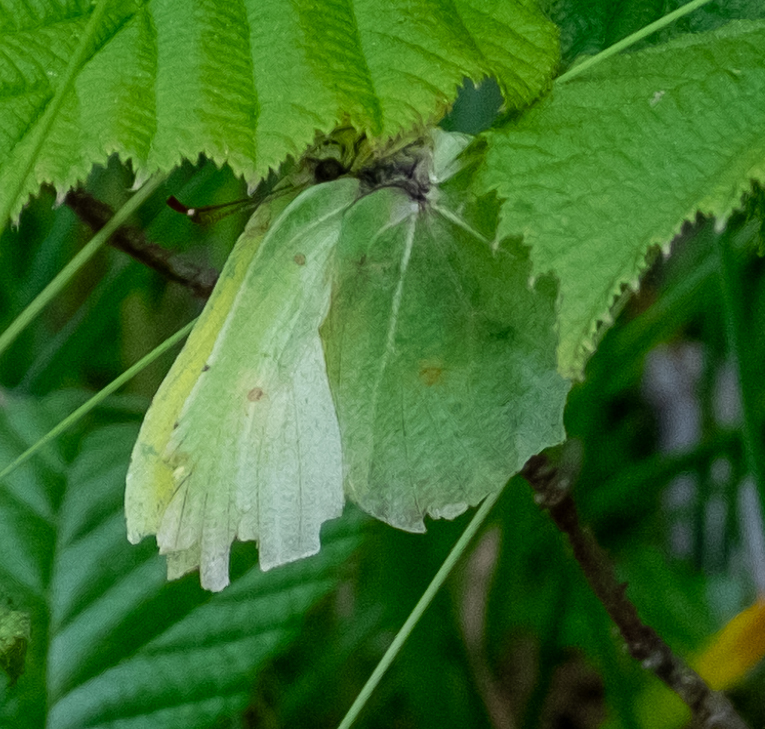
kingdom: Animalia
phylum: Arthropoda
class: Insecta
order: Lepidoptera
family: Pieridae
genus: Gonepteryx
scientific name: Gonepteryx rhamni
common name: Brimstone
